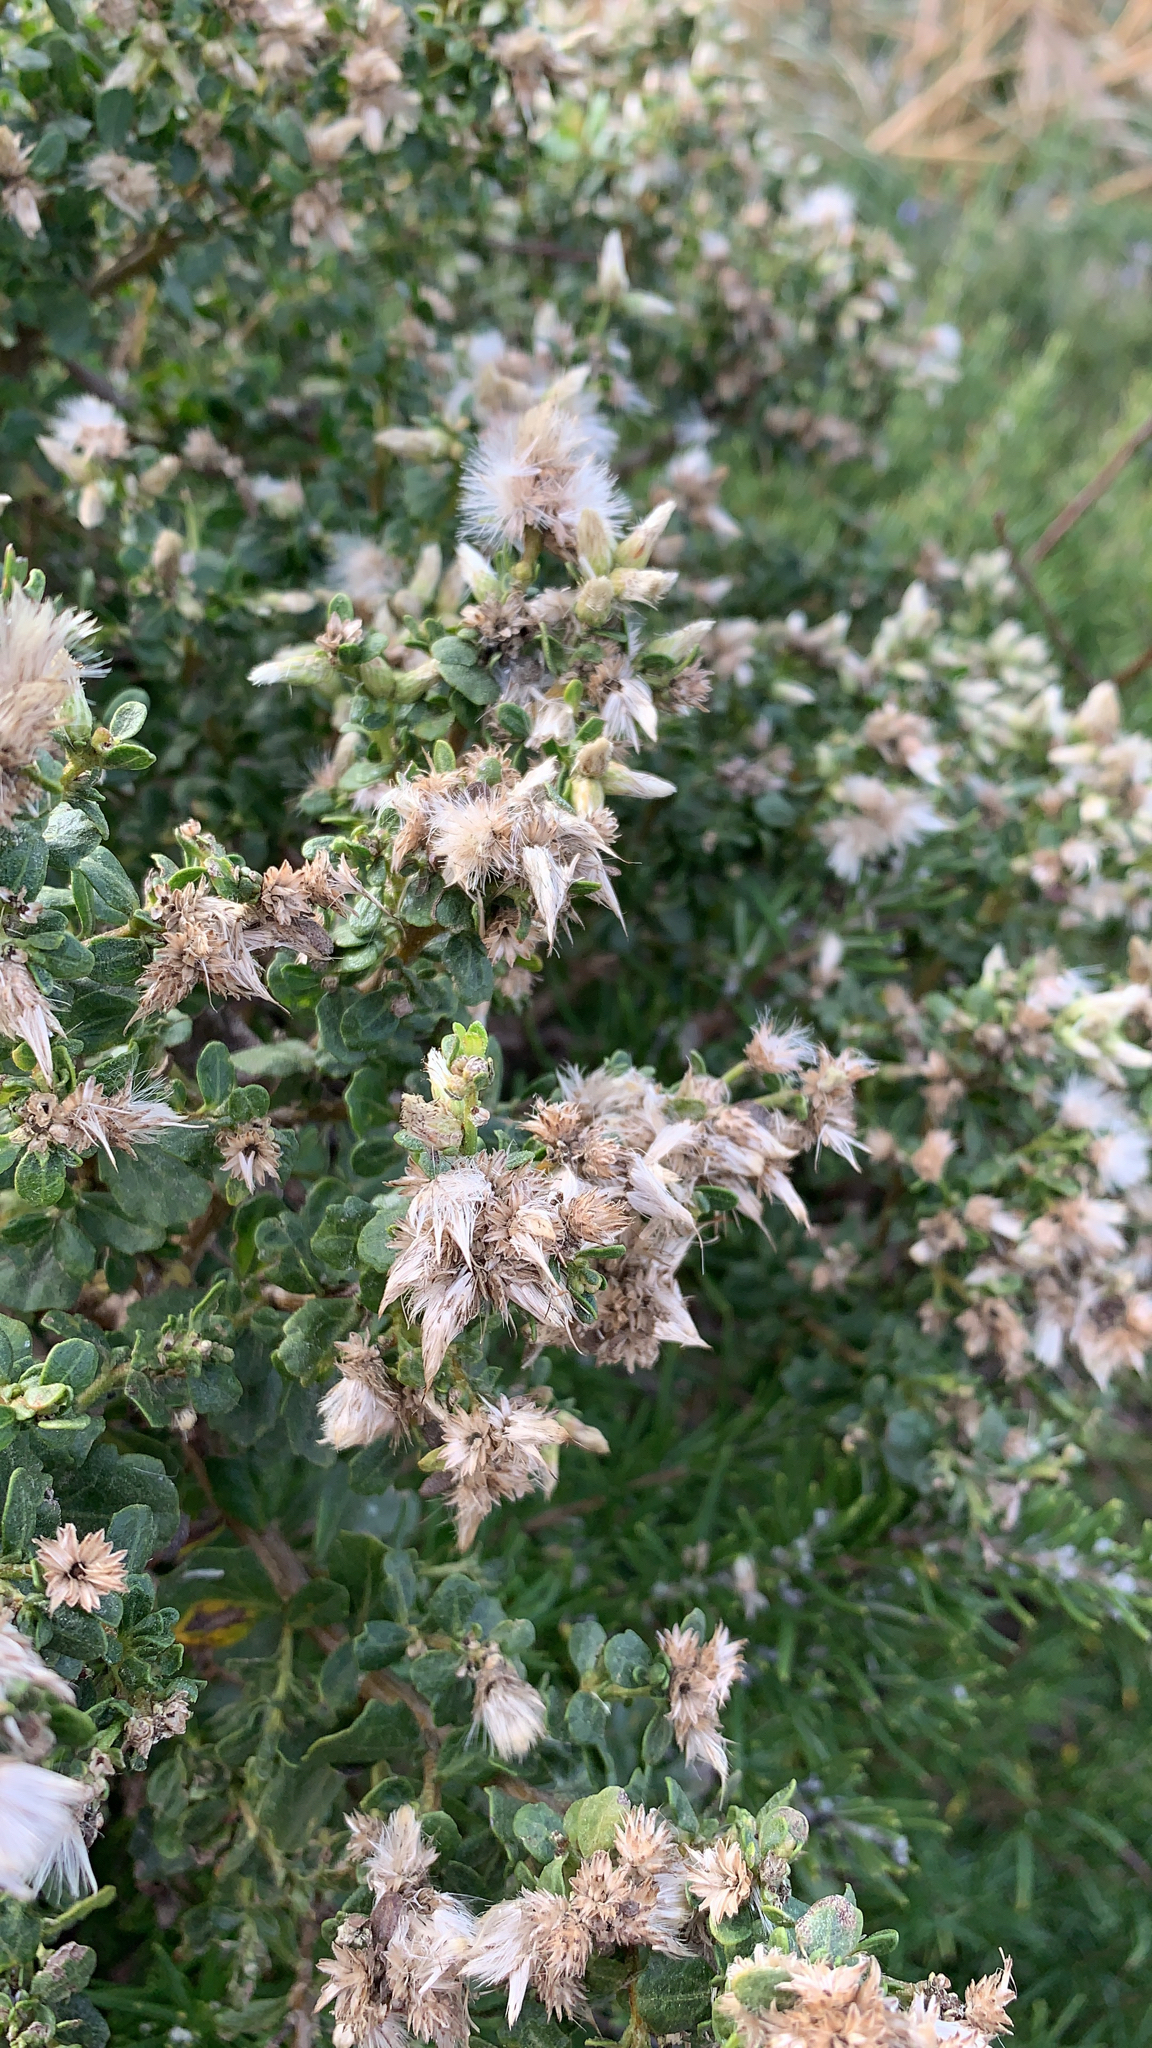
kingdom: Plantae
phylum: Tracheophyta
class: Magnoliopsida
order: Asterales
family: Asteraceae
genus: Baccharis
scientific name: Baccharis pilularis
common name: Coyotebrush
